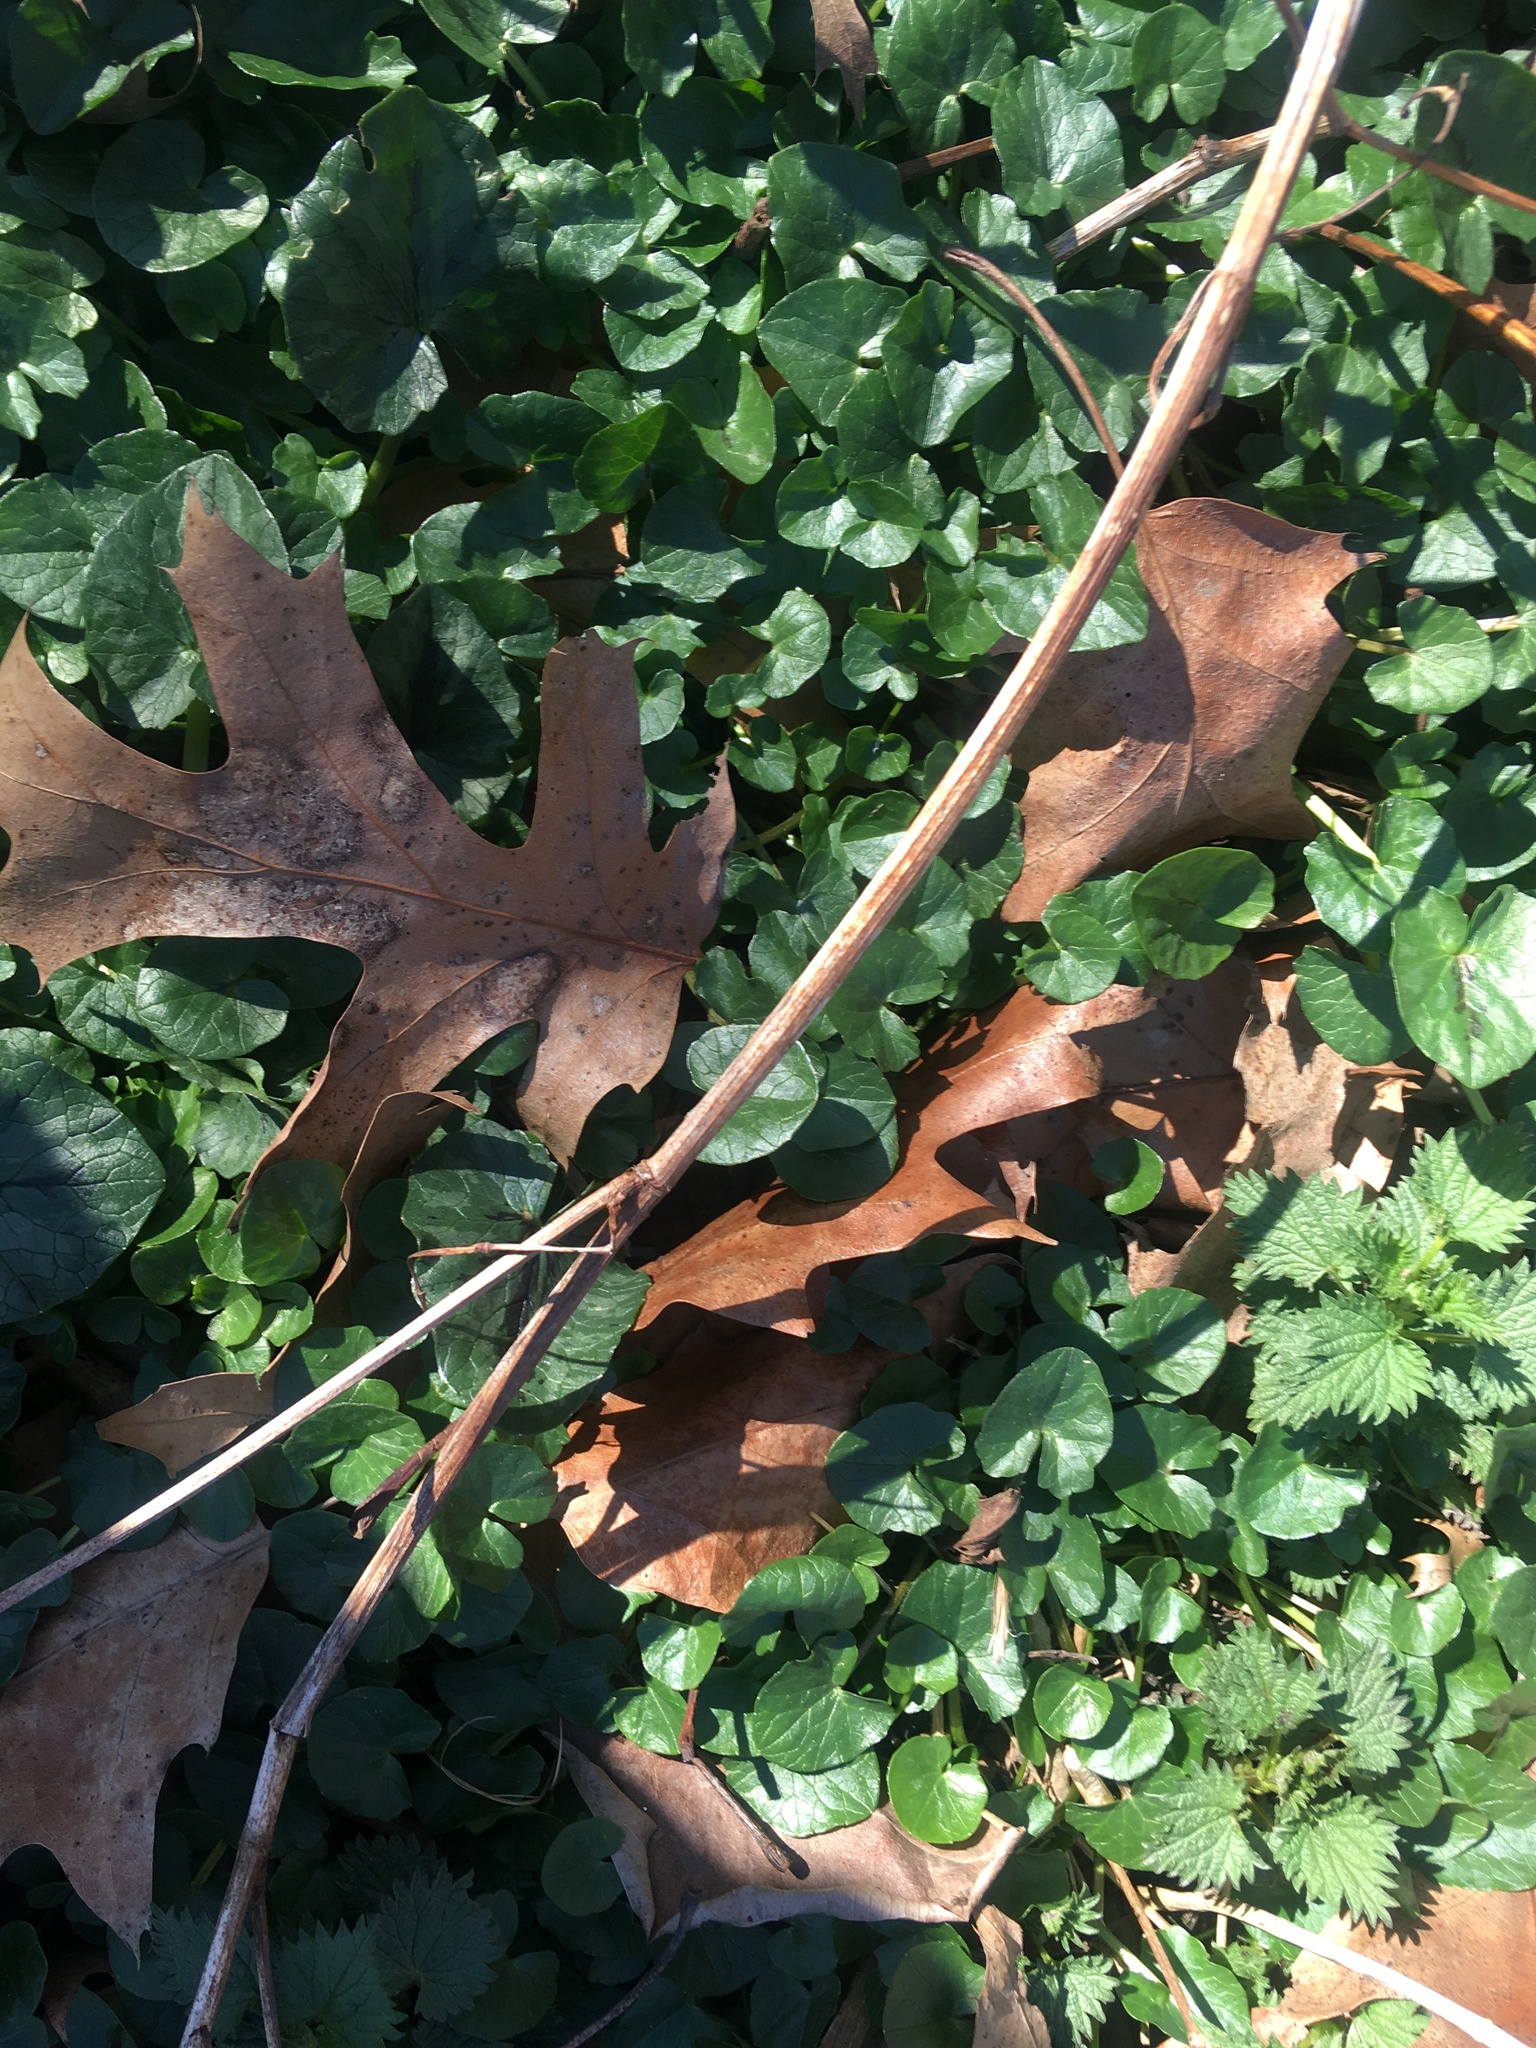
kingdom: Plantae
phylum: Tracheophyta
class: Magnoliopsida
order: Ranunculales
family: Ranunculaceae
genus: Ficaria
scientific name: Ficaria verna
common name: Lesser celandine
